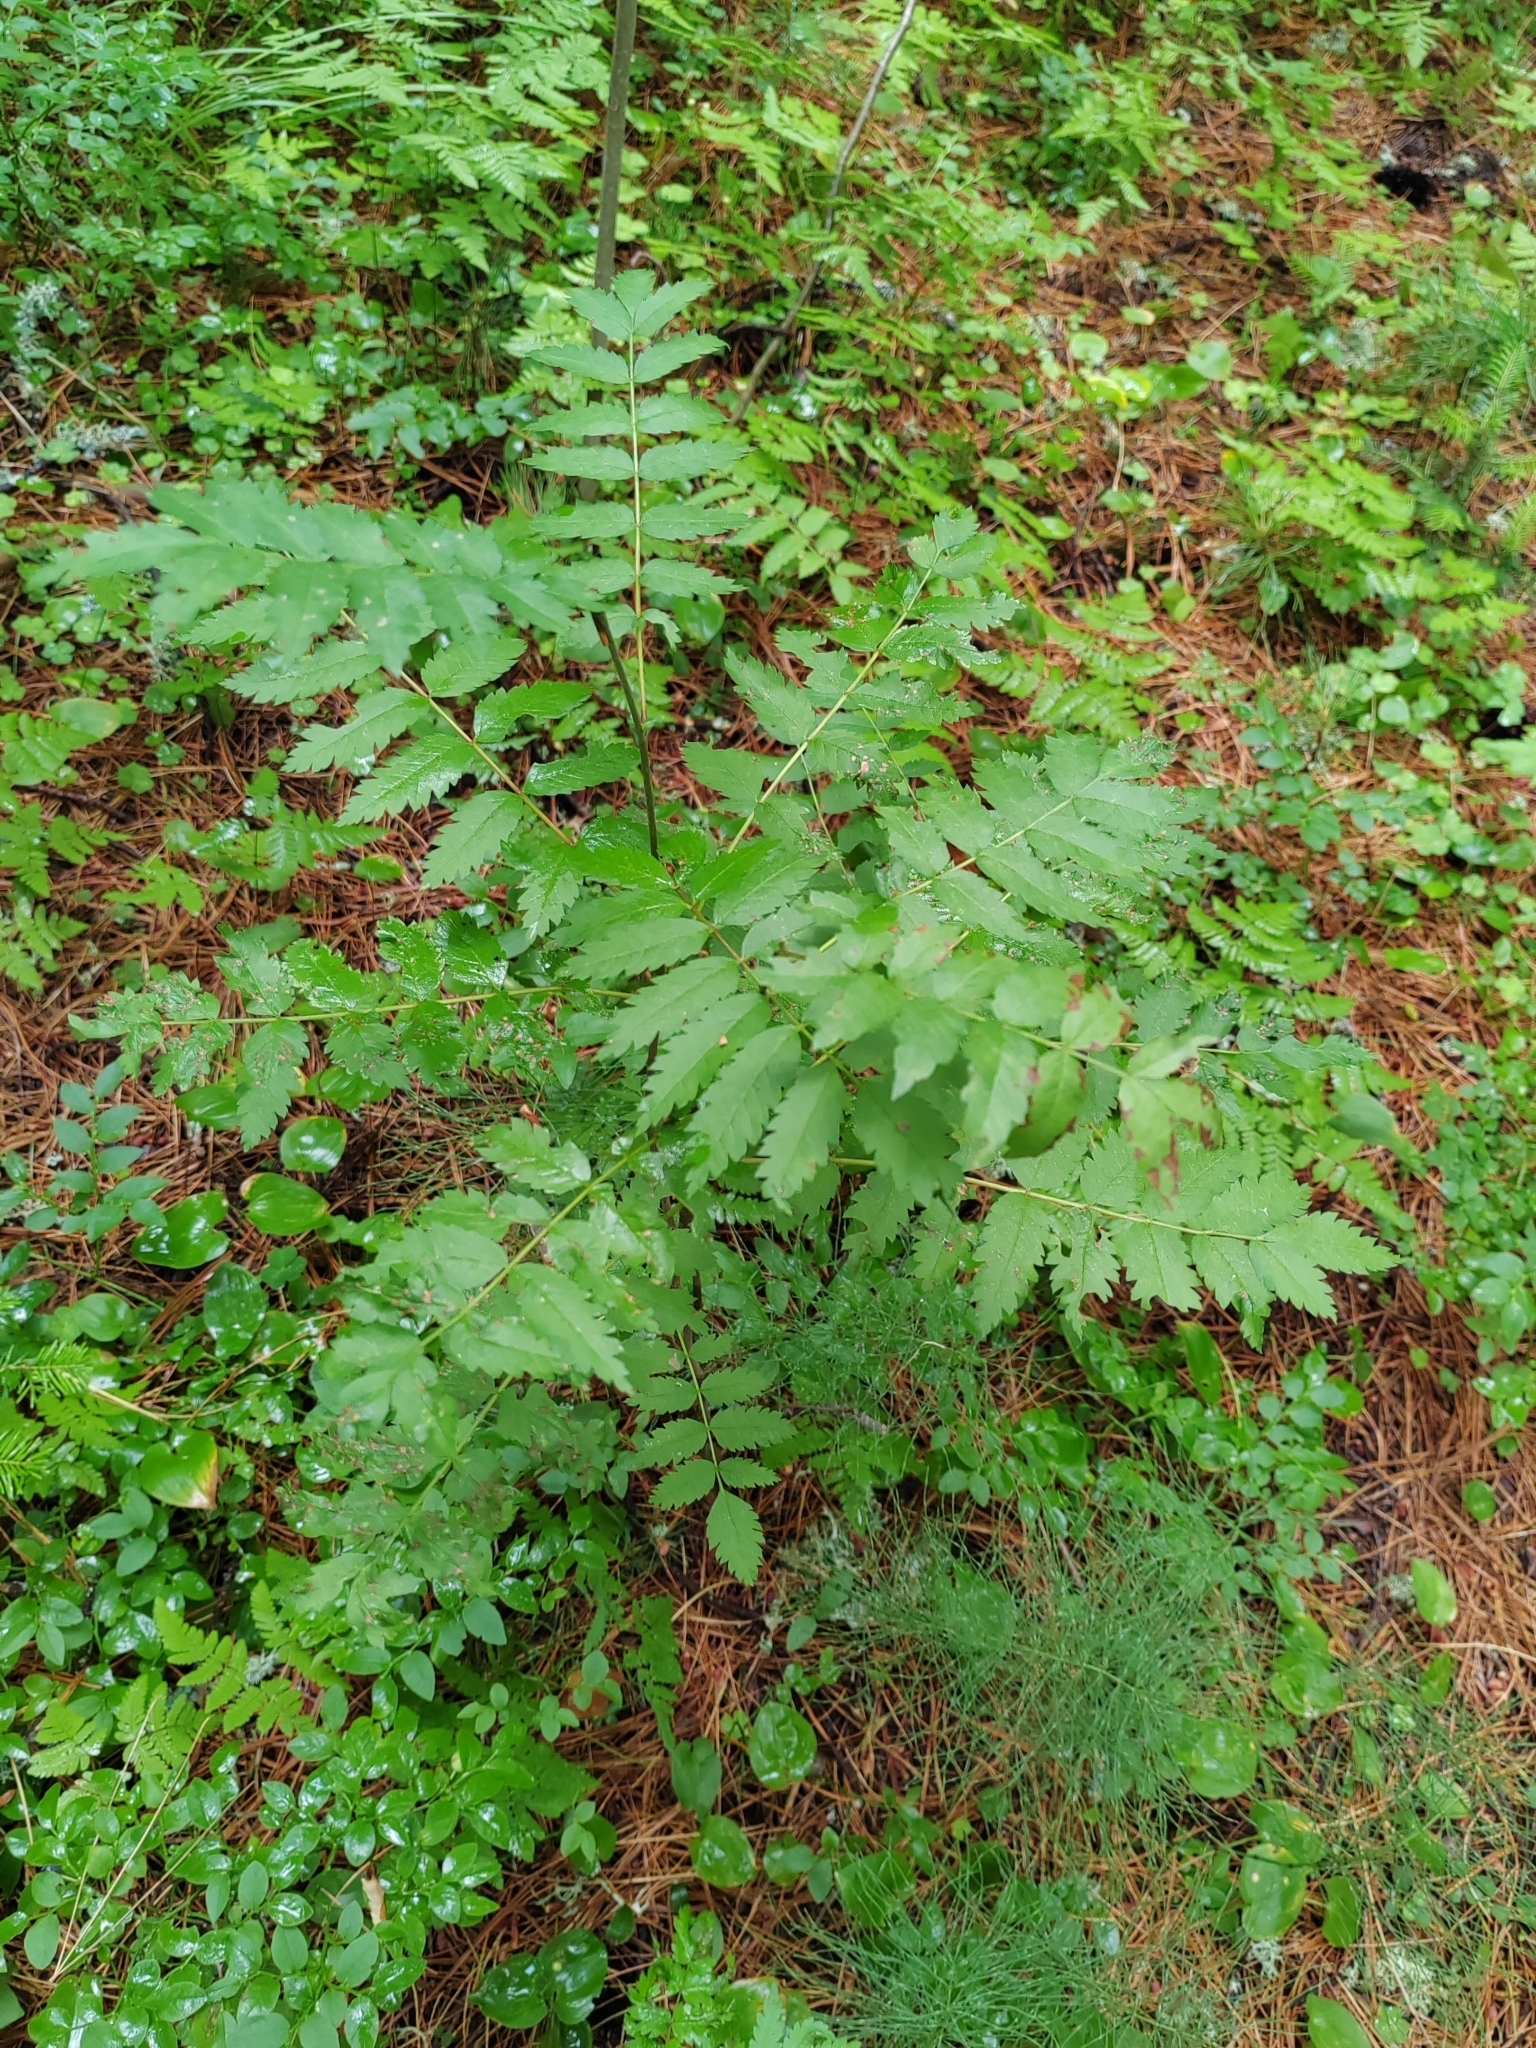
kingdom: Plantae
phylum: Tracheophyta
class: Magnoliopsida
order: Rosales
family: Rosaceae
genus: Sorbus
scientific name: Sorbus aucuparia
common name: Rowan
